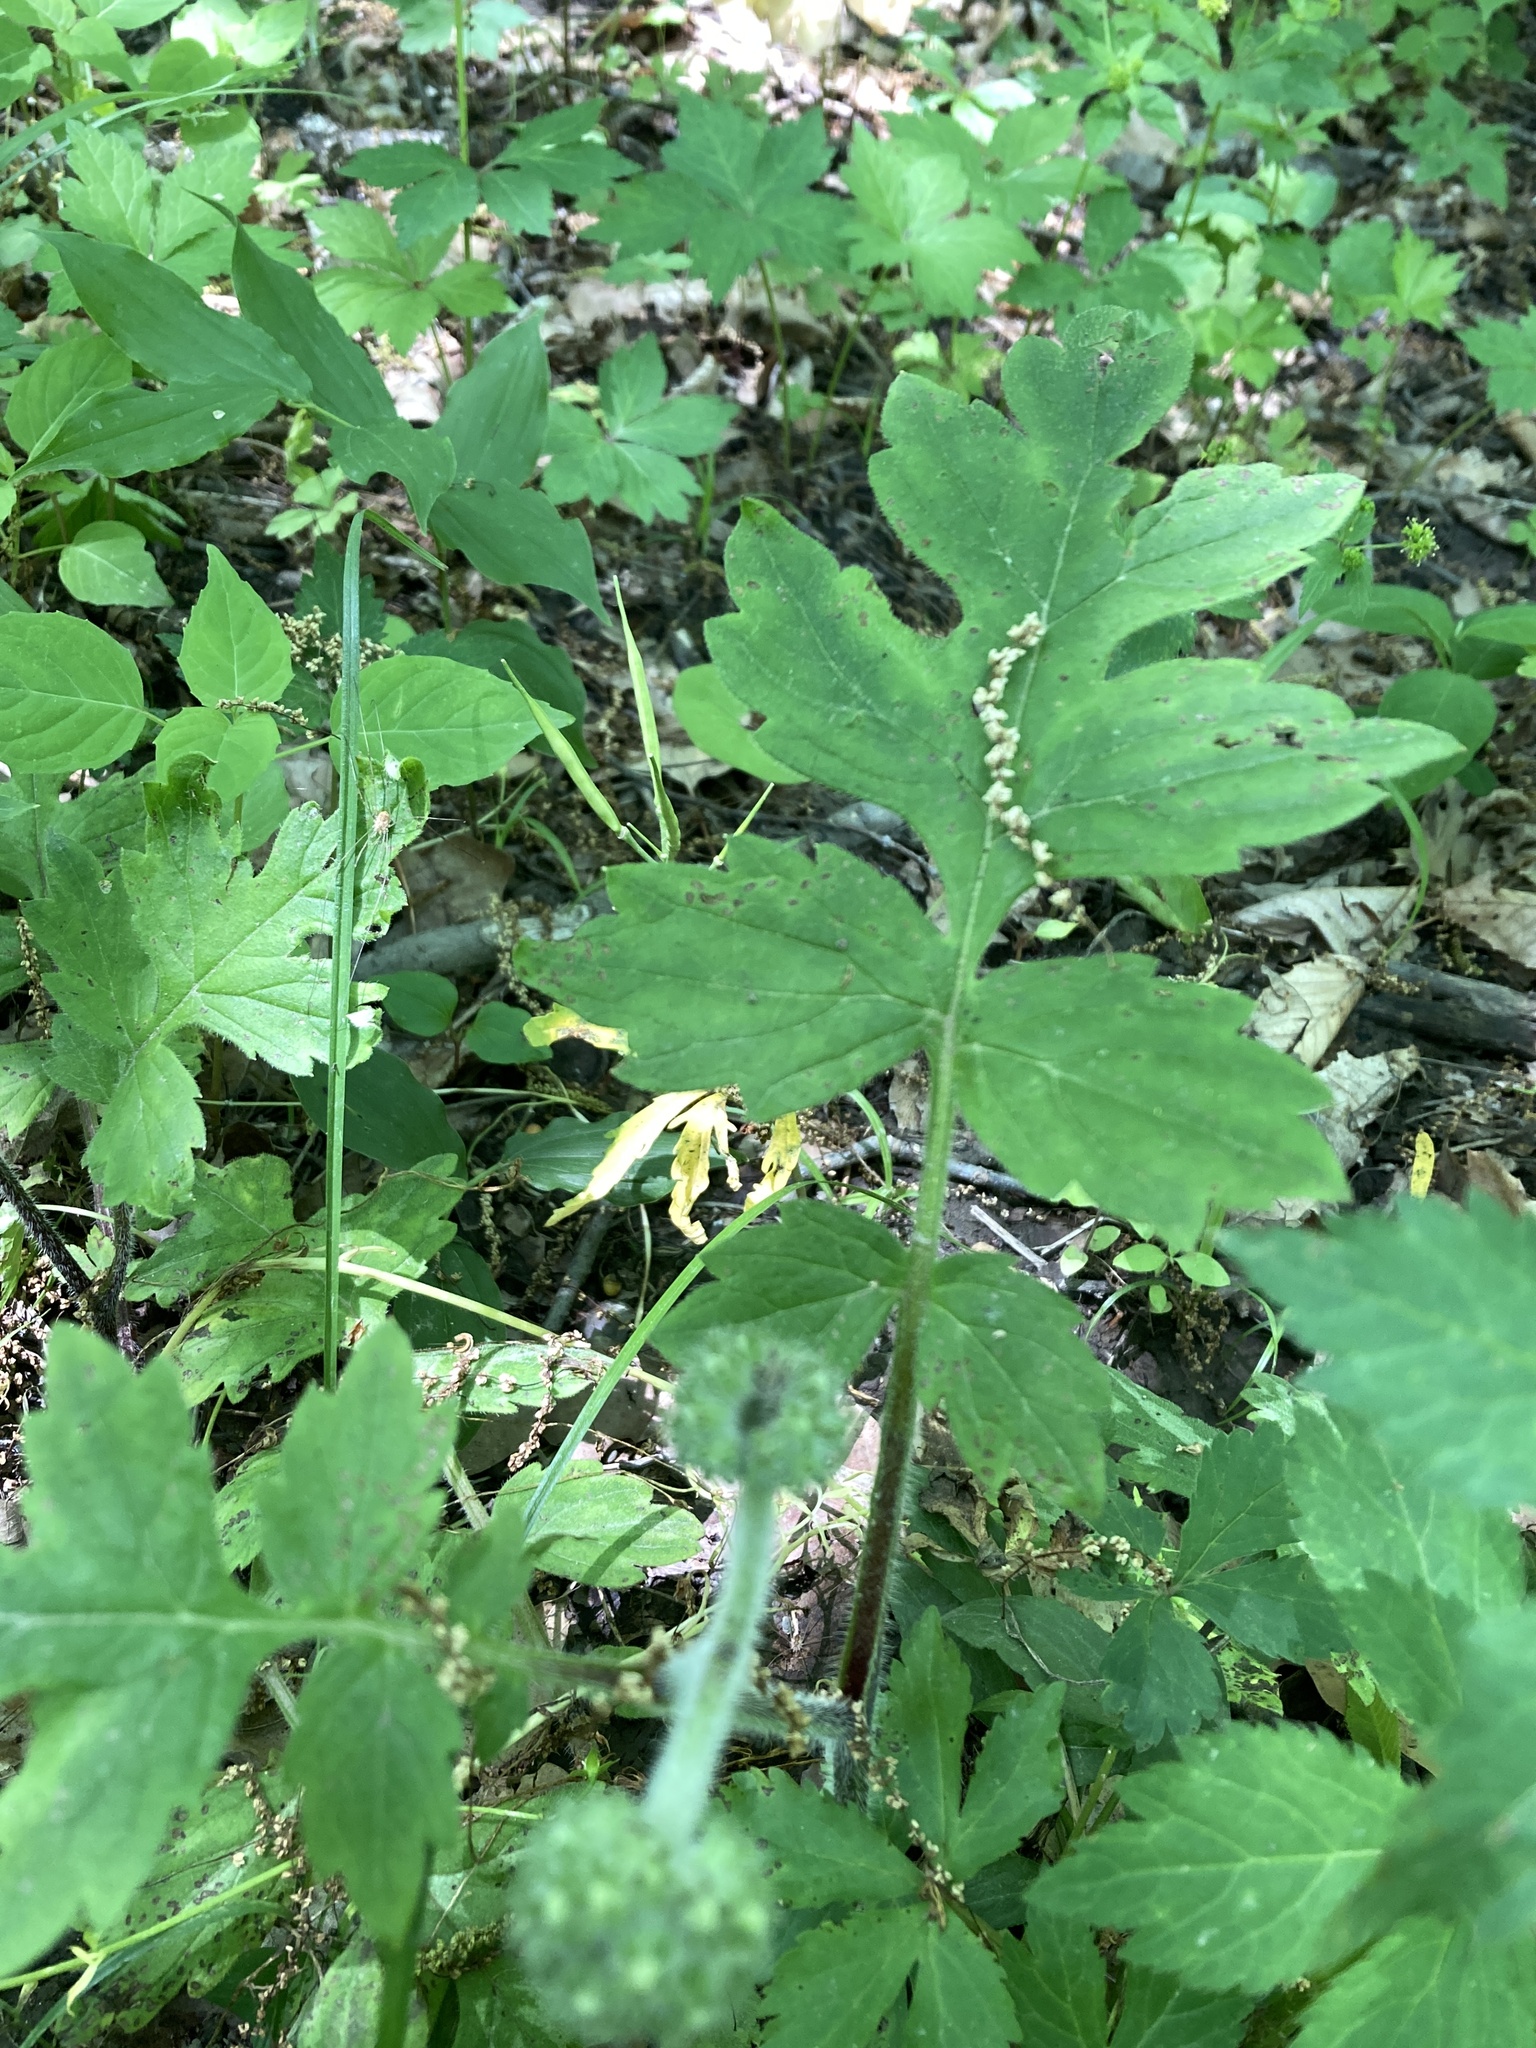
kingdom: Plantae
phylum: Tracheophyta
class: Magnoliopsida
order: Boraginales
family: Hydrophyllaceae
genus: Hydrophyllum
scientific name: Hydrophyllum macrophyllum
